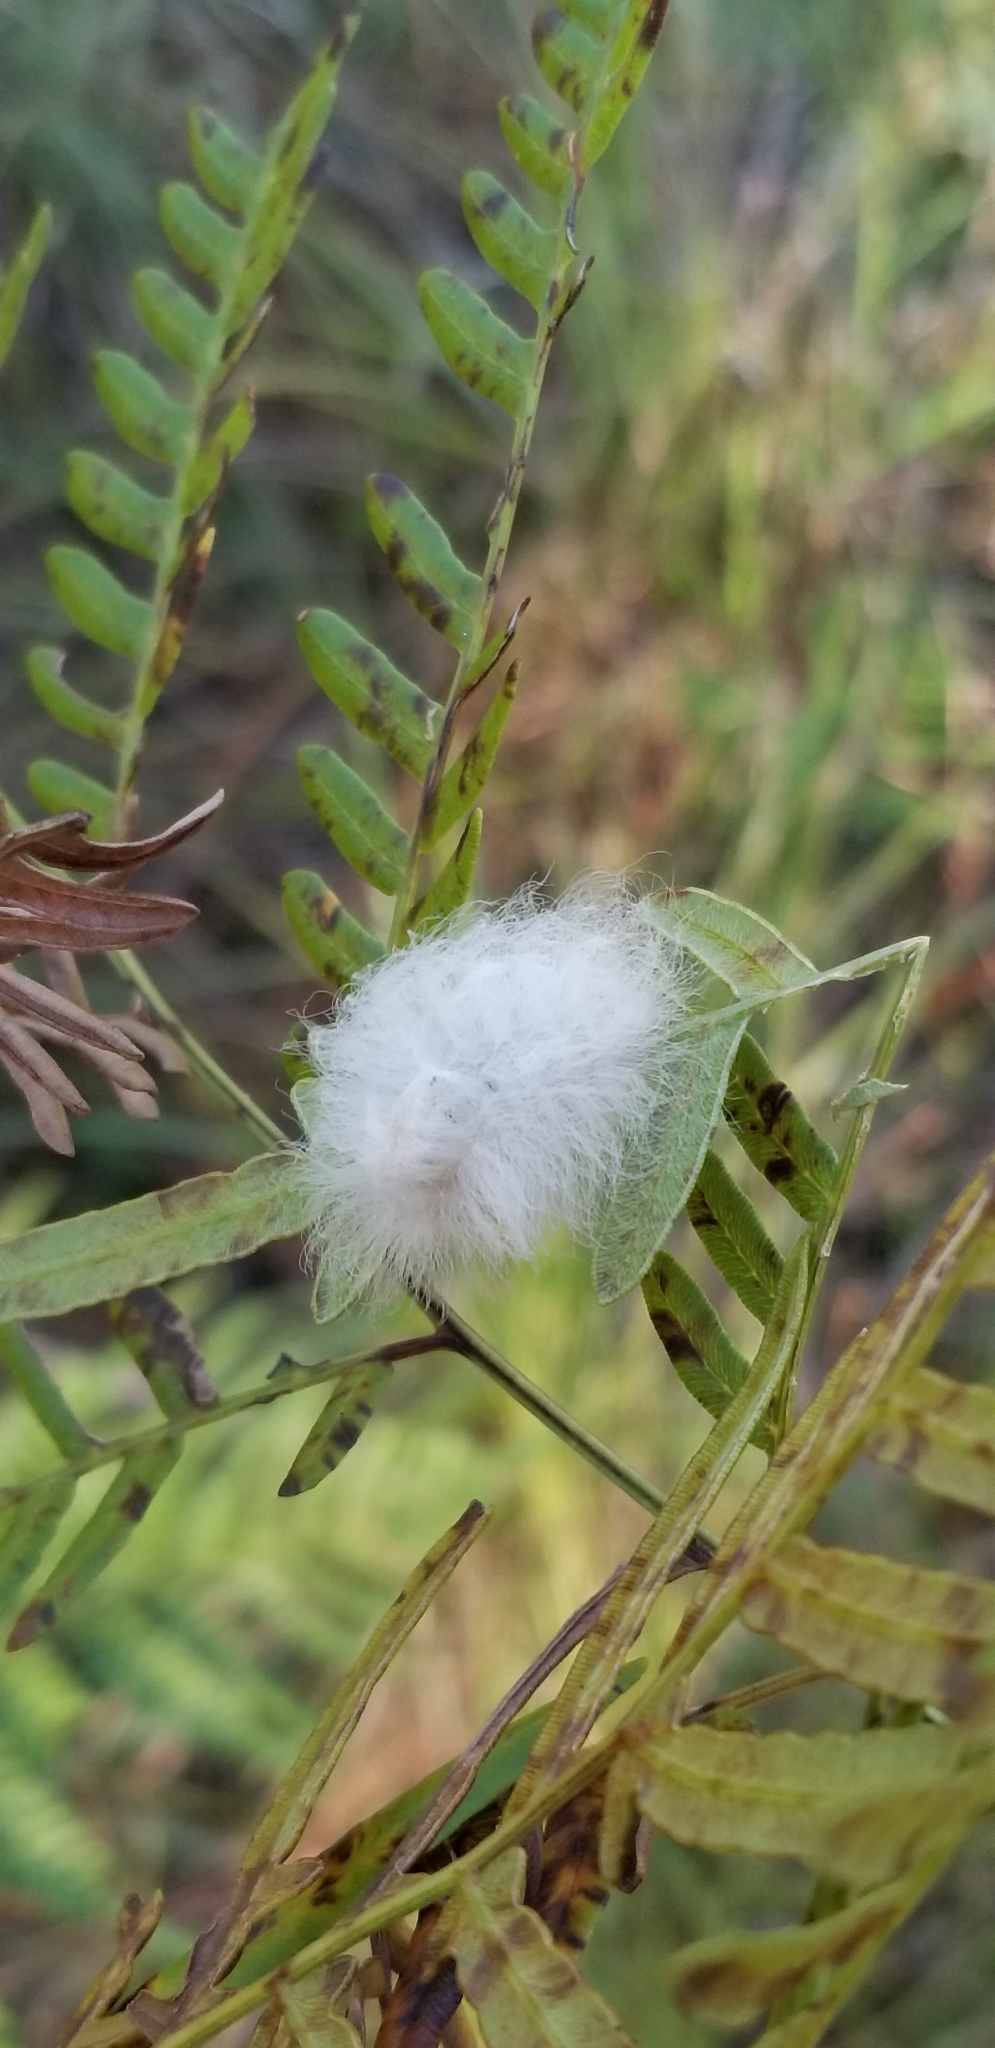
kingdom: Animalia
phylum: Arthropoda
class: Insecta
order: Lepidoptera
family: Megalopygidae
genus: Megalopyge
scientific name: Megalopyge crispata
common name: Black-waved flannel moth
